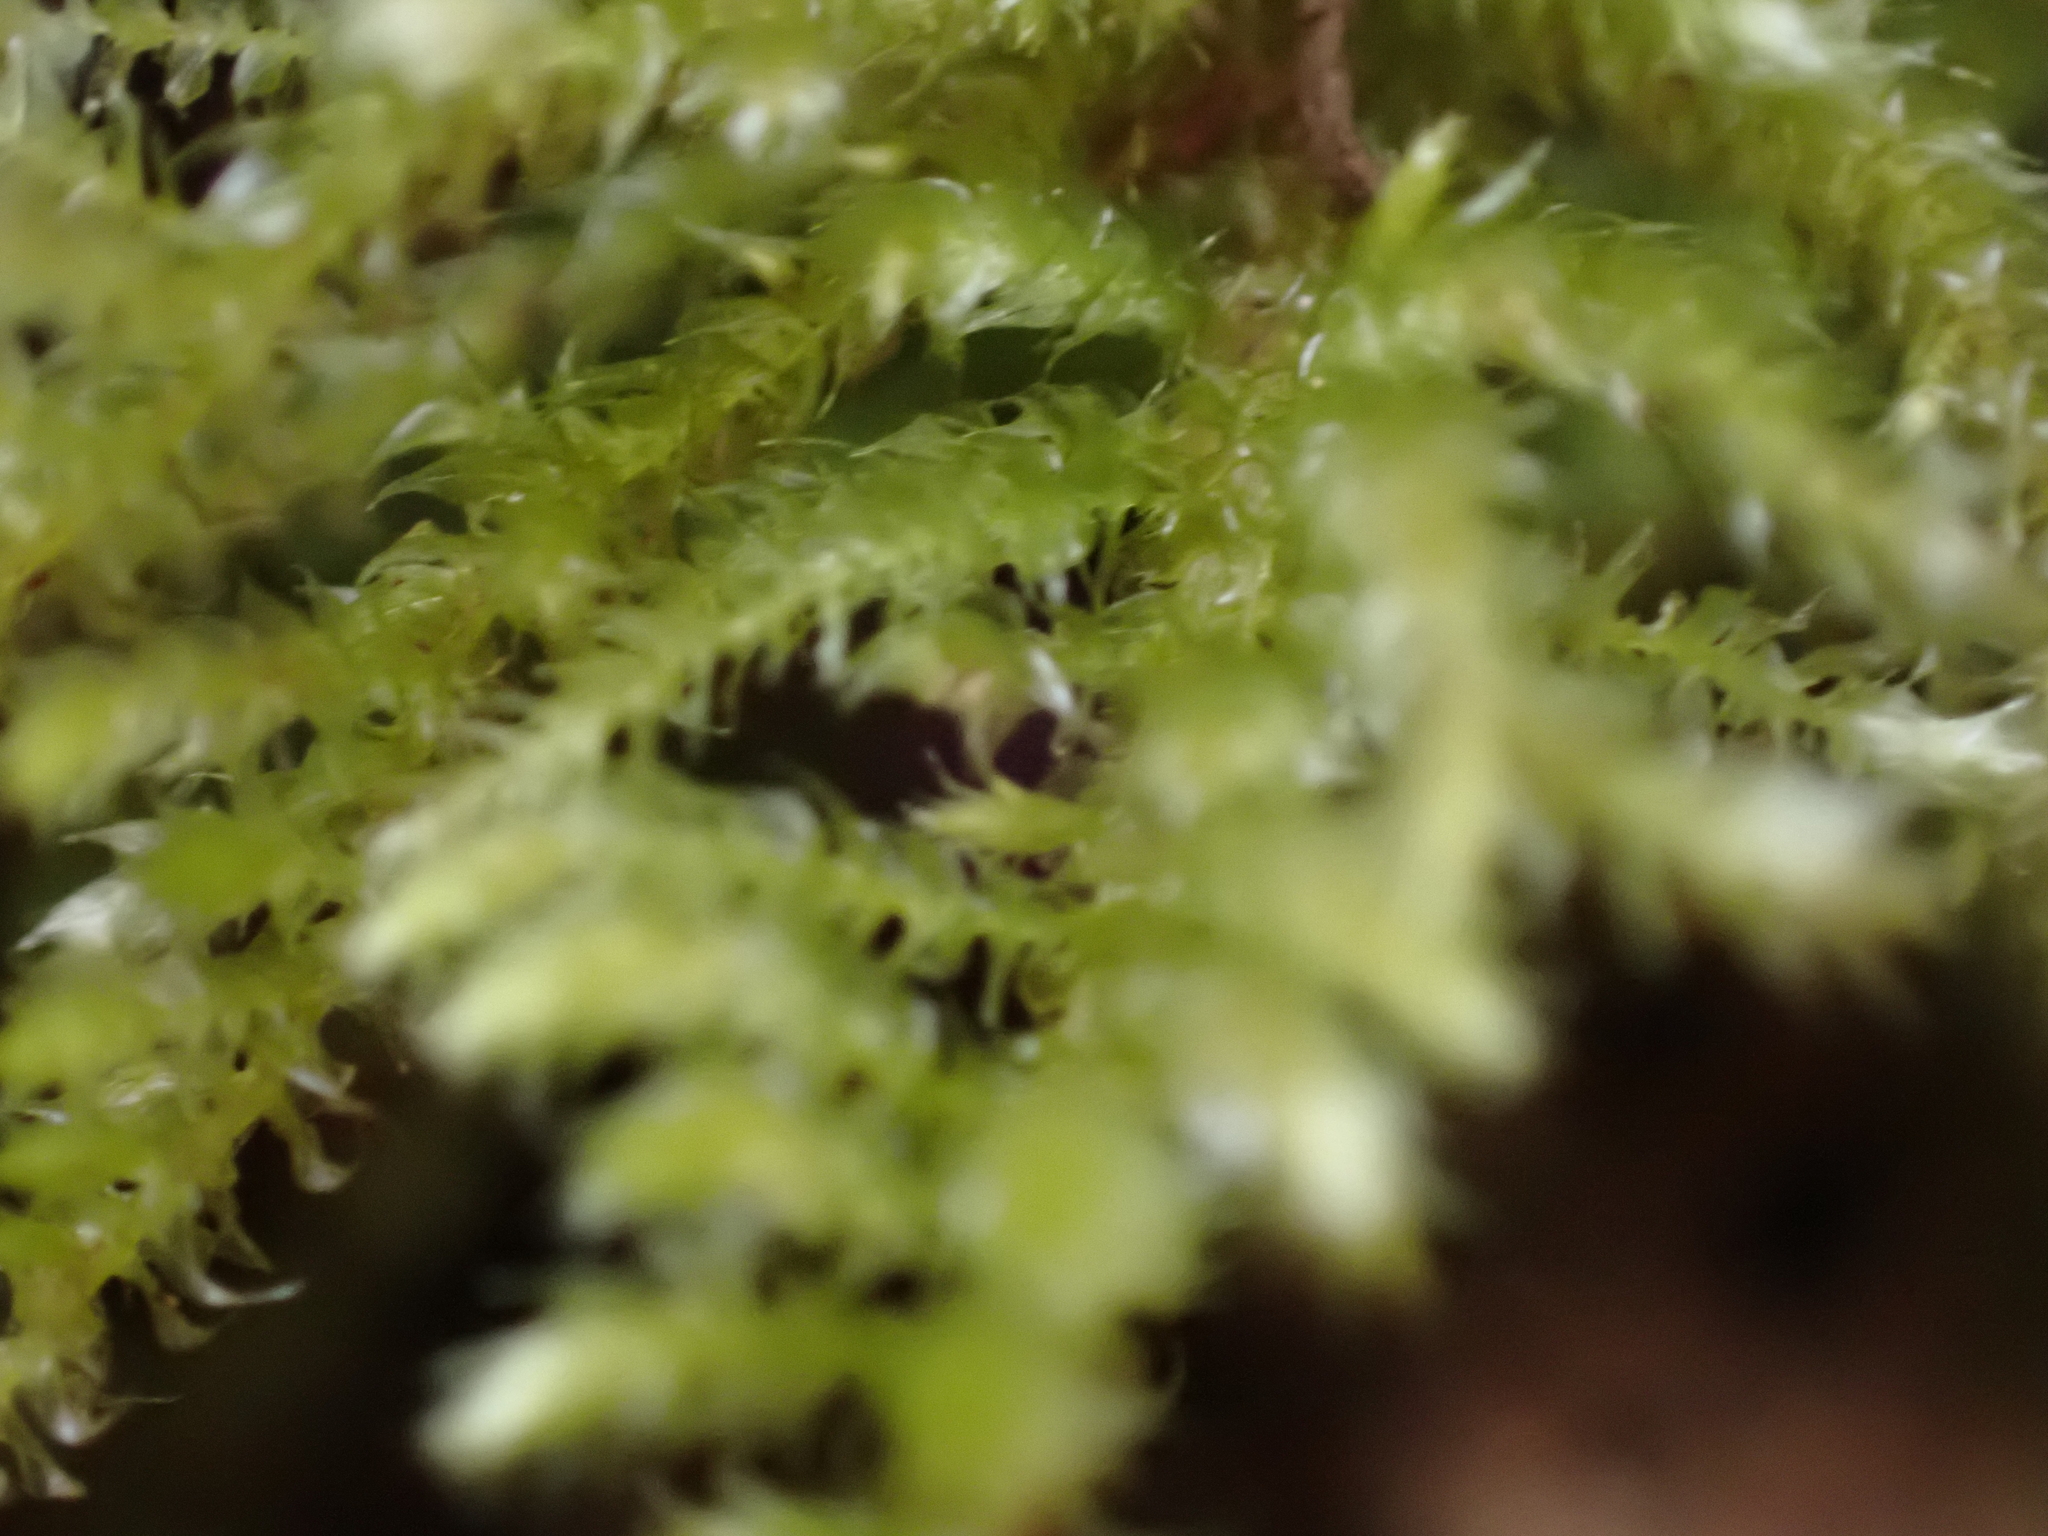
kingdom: Plantae
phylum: Bryophyta
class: Bryopsida
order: Hypnales
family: Brachytheciaceae
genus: Kindbergia
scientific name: Kindbergia oregana
